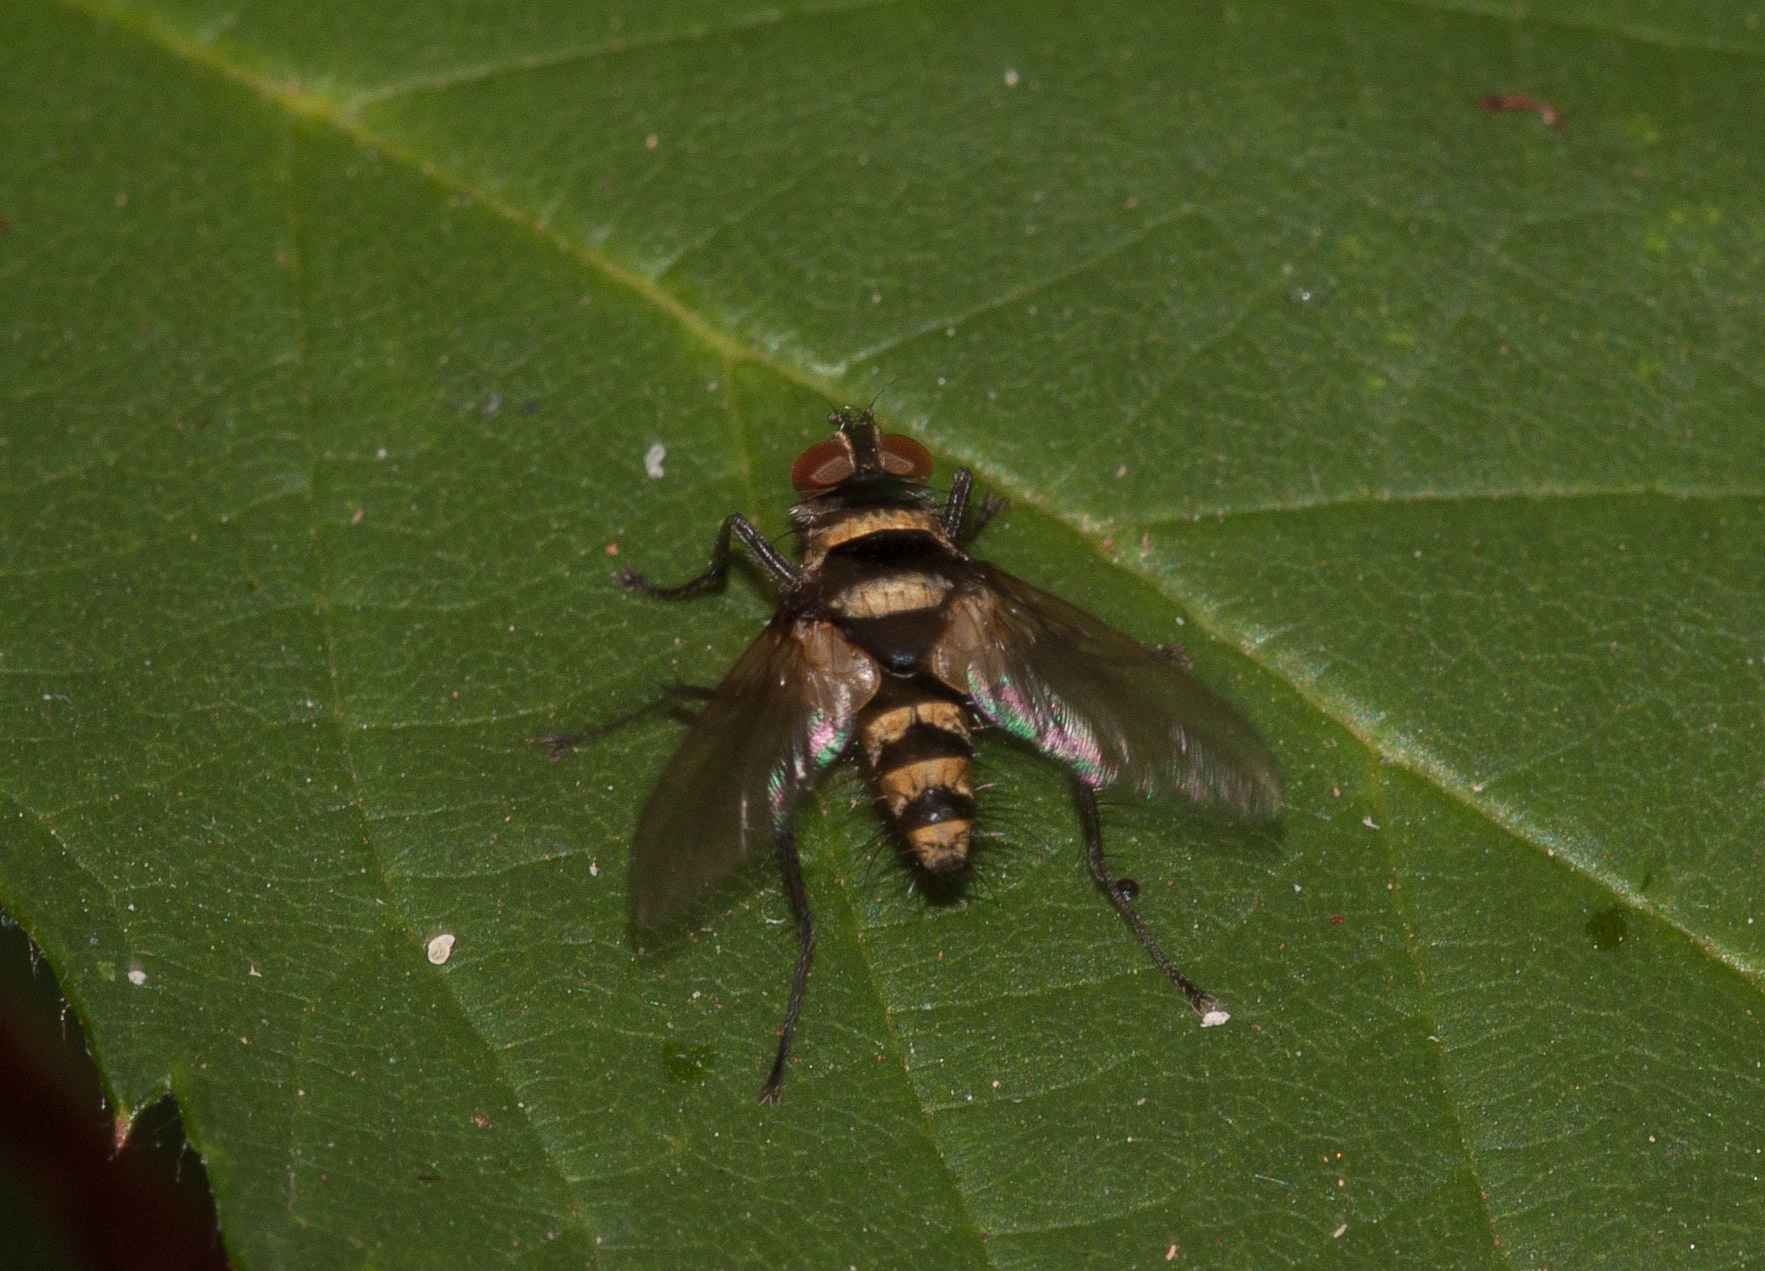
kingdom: Animalia
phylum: Arthropoda
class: Insecta
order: Diptera
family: Tachinidae
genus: Trigonospila
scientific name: Trigonospila brevifacies
